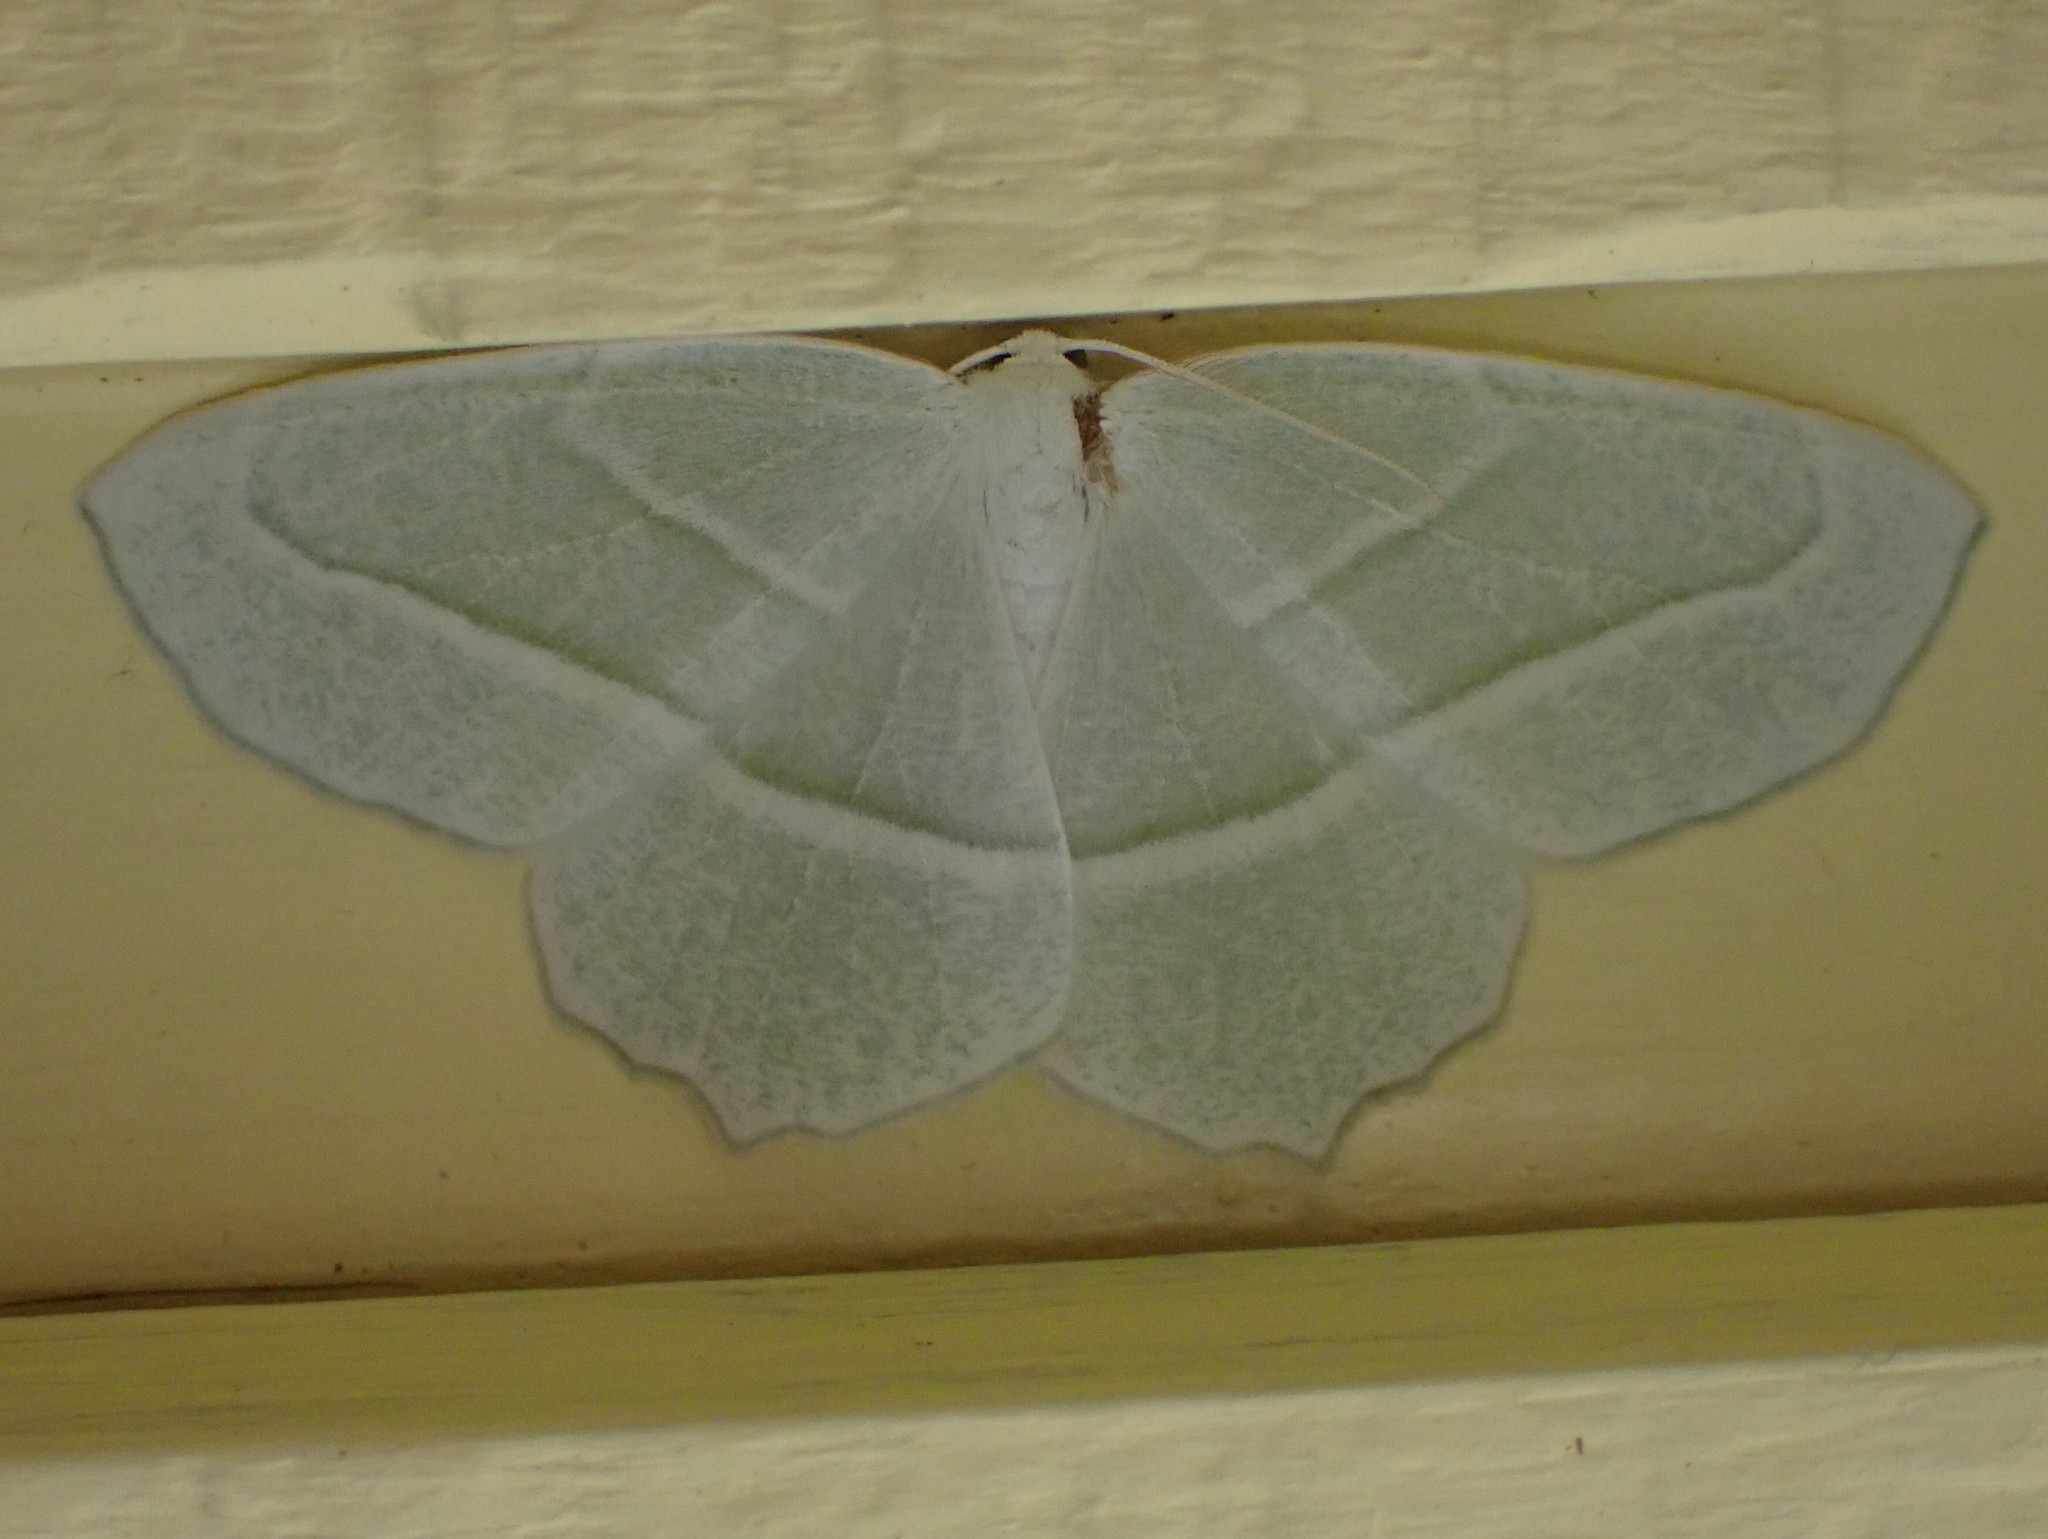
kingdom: Animalia
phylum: Arthropoda
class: Insecta
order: Lepidoptera
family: Geometridae
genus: Campaea
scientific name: Campaea perlata
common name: Fringed looper
